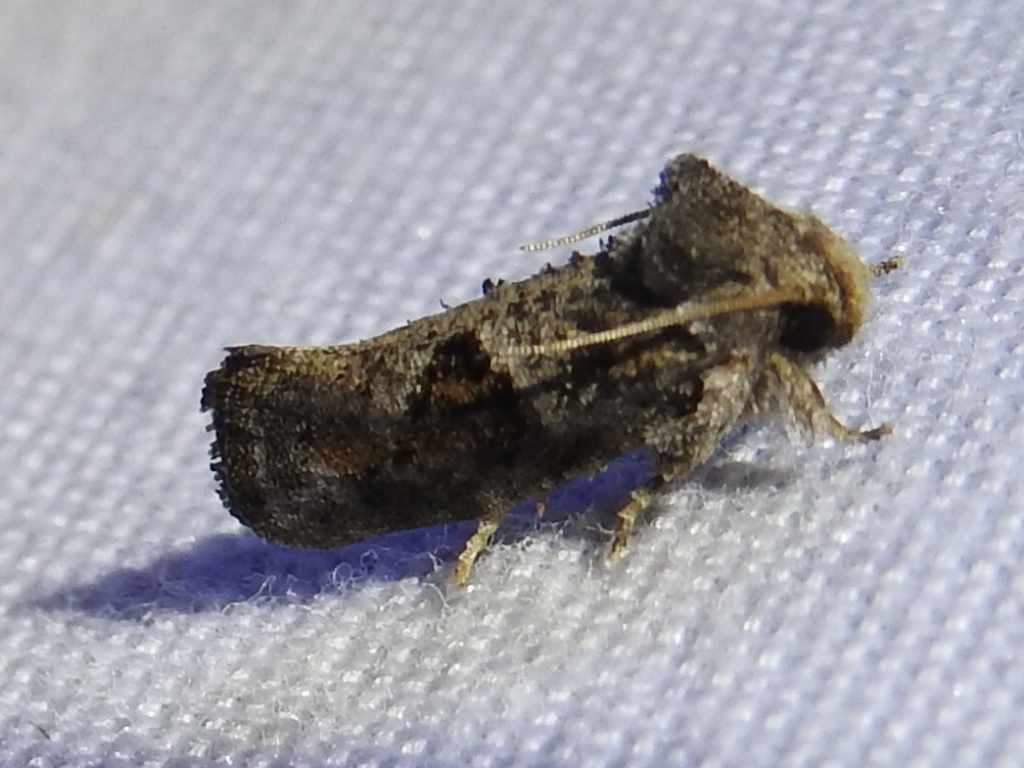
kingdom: Animalia
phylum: Arthropoda
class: Insecta
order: Lepidoptera
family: Tineidae
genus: Acrolophus
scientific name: Acrolophus piger
